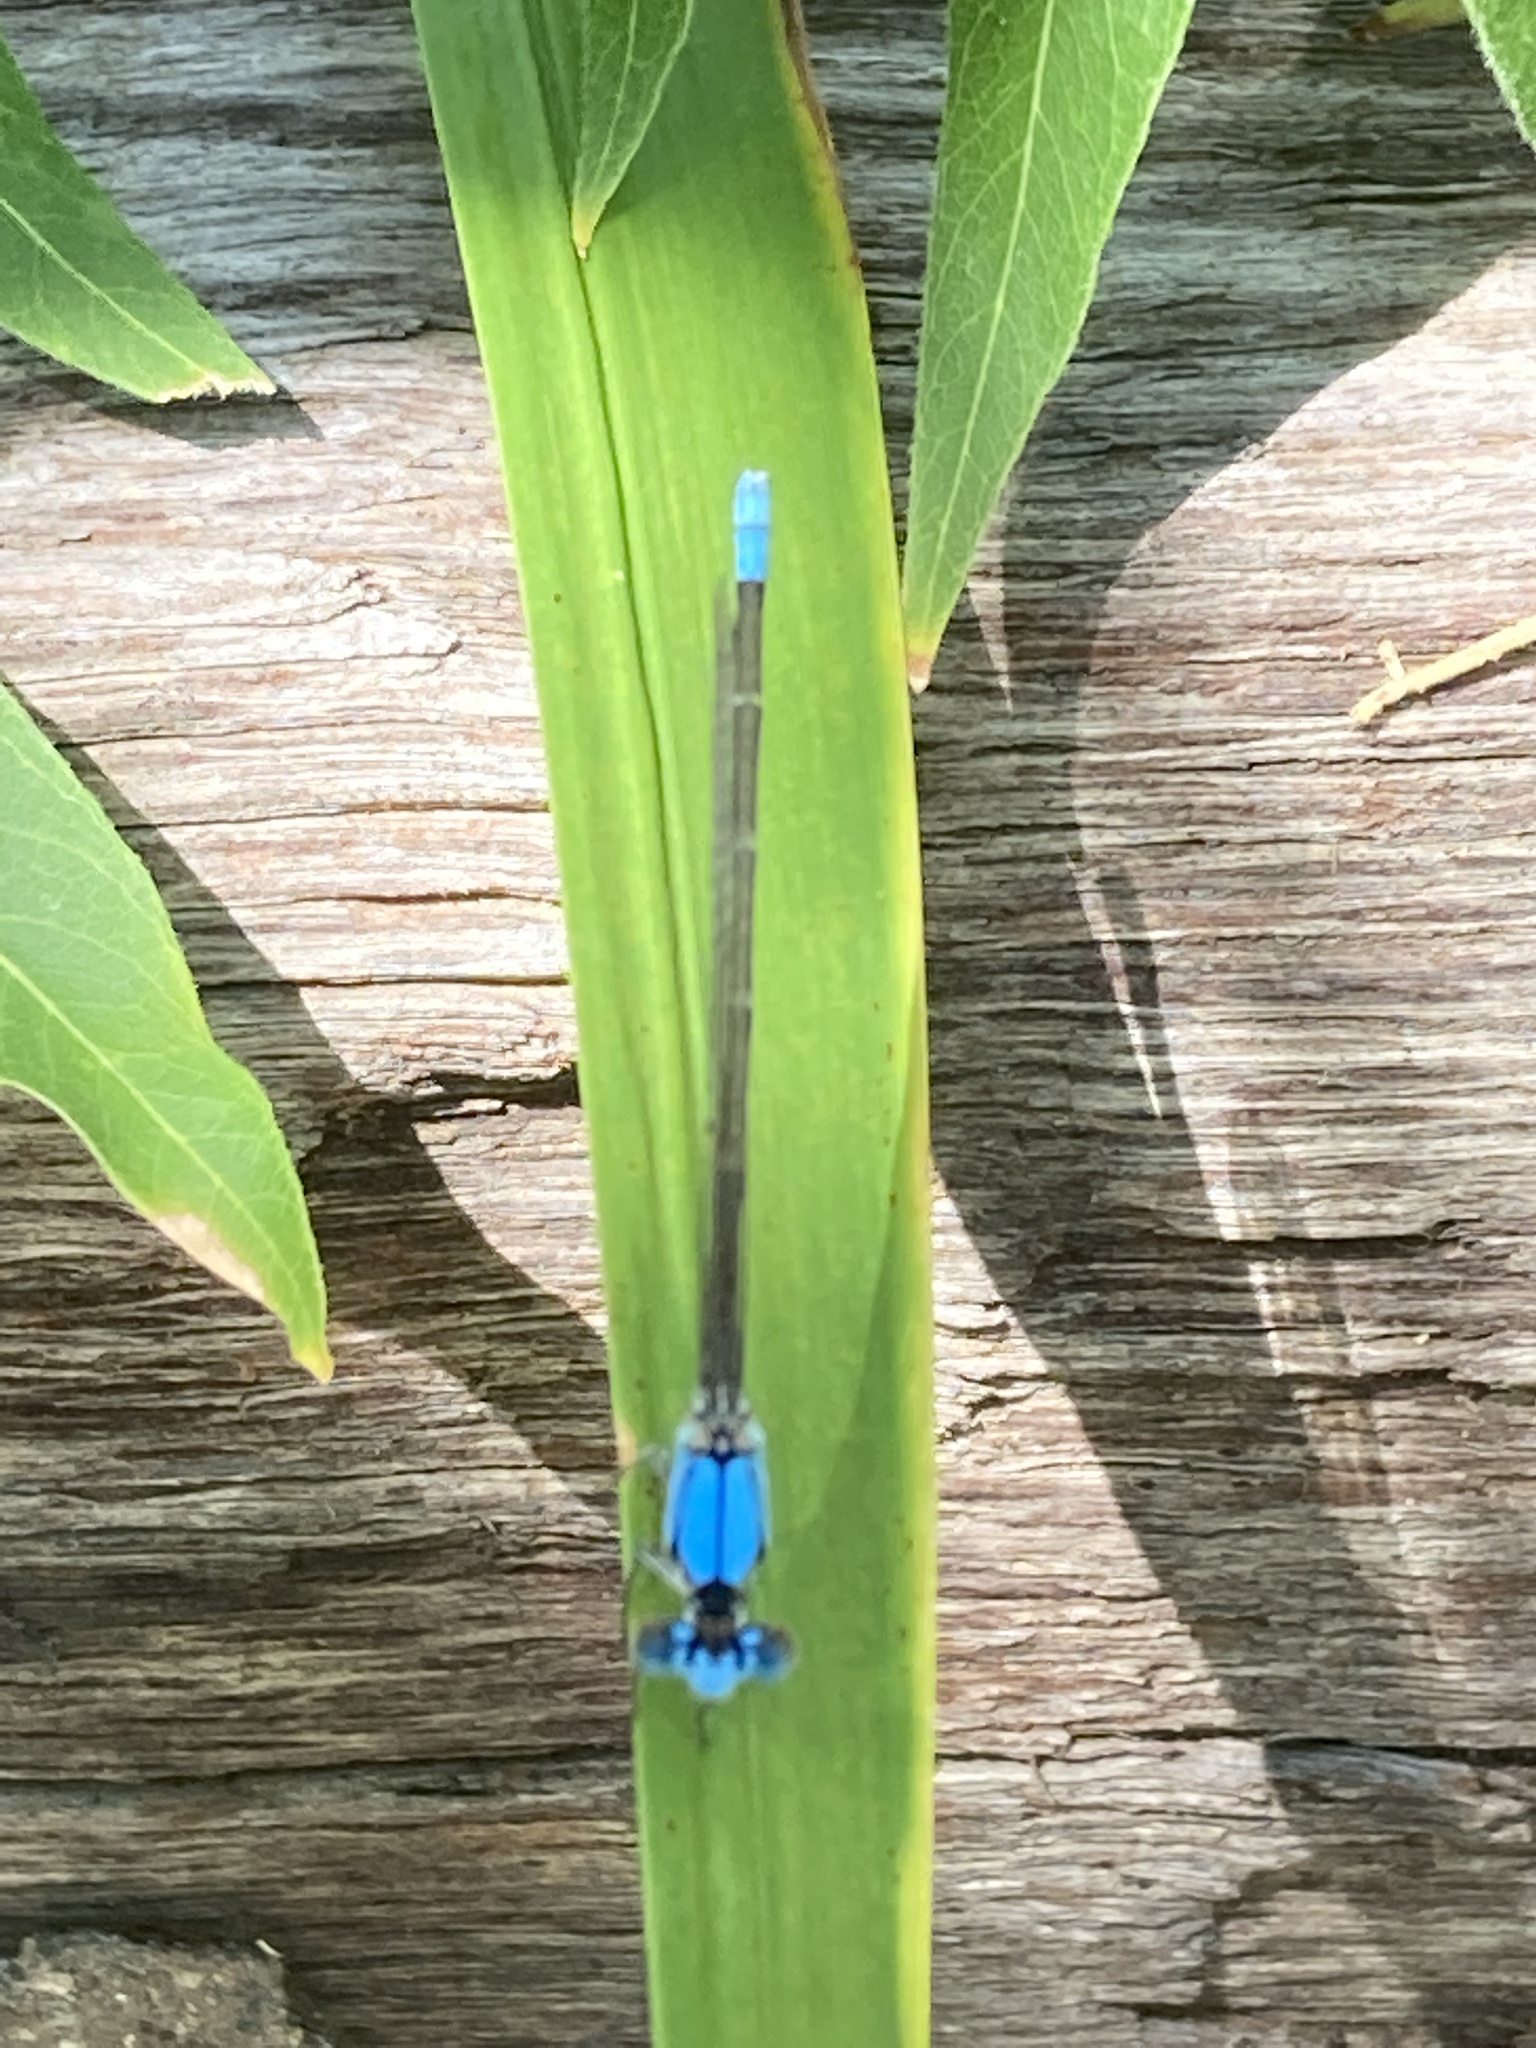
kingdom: Animalia
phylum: Arthropoda
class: Insecta
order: Odonata
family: Coenagrionidae
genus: Argia
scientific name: Argia apicalis
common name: Blue-fronted dancer
